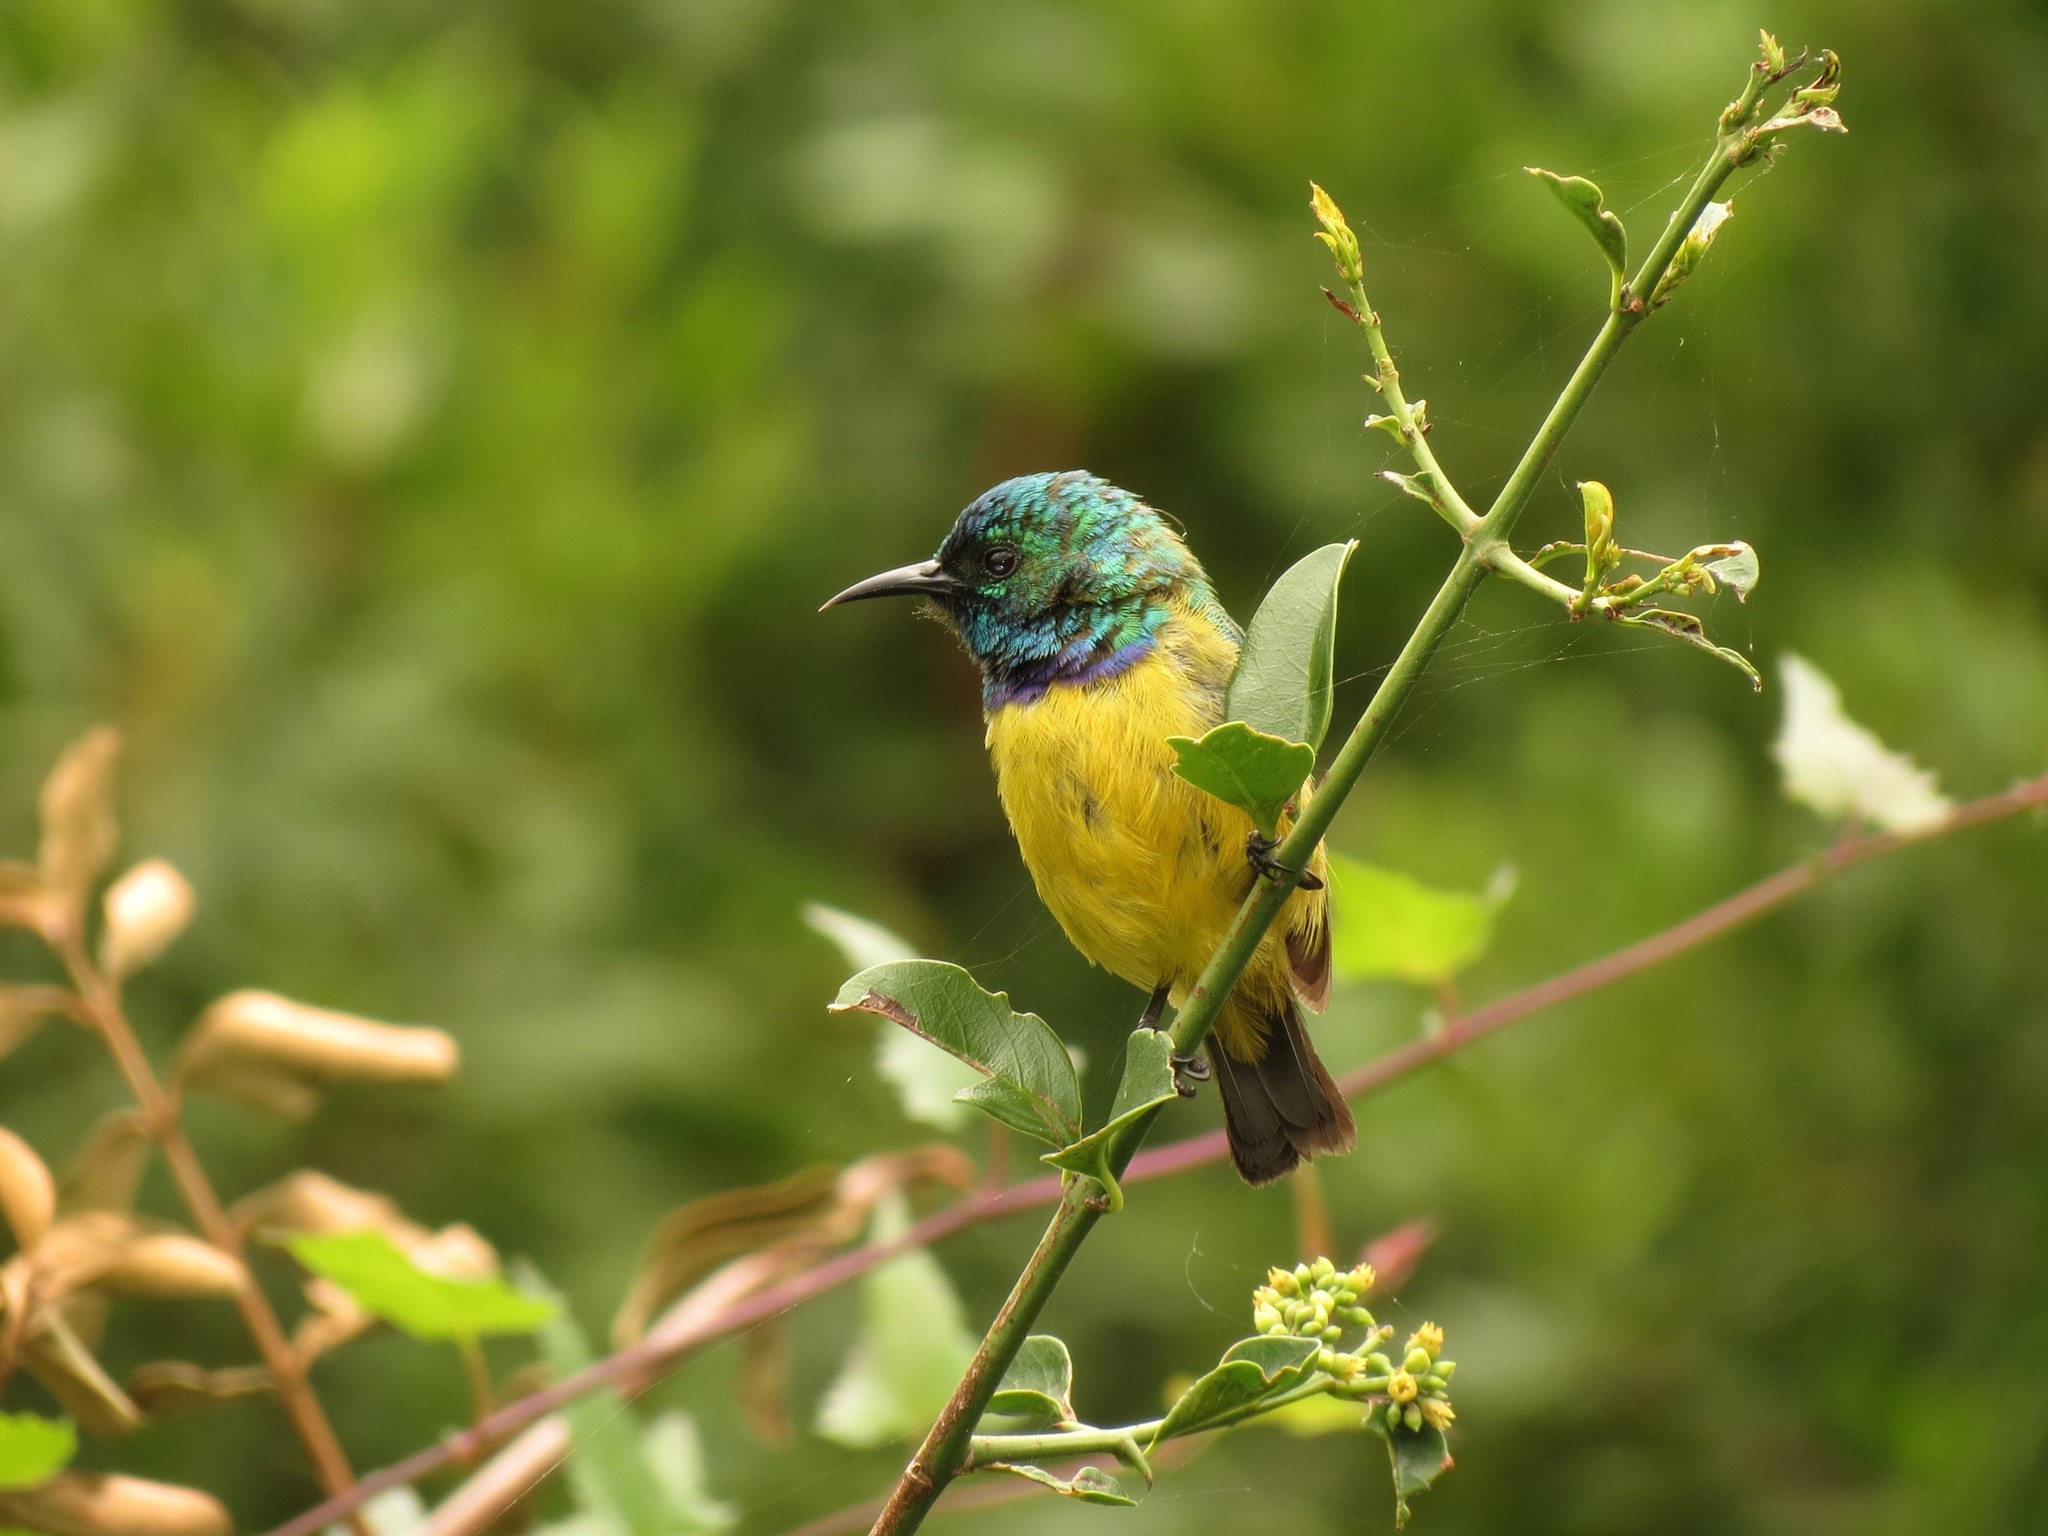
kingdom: Animalia
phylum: Chordata
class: Aves
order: Passeriformes
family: Nectariniidae
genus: Hedydipna
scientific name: Hedydipna collaris
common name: Collared sunbird
